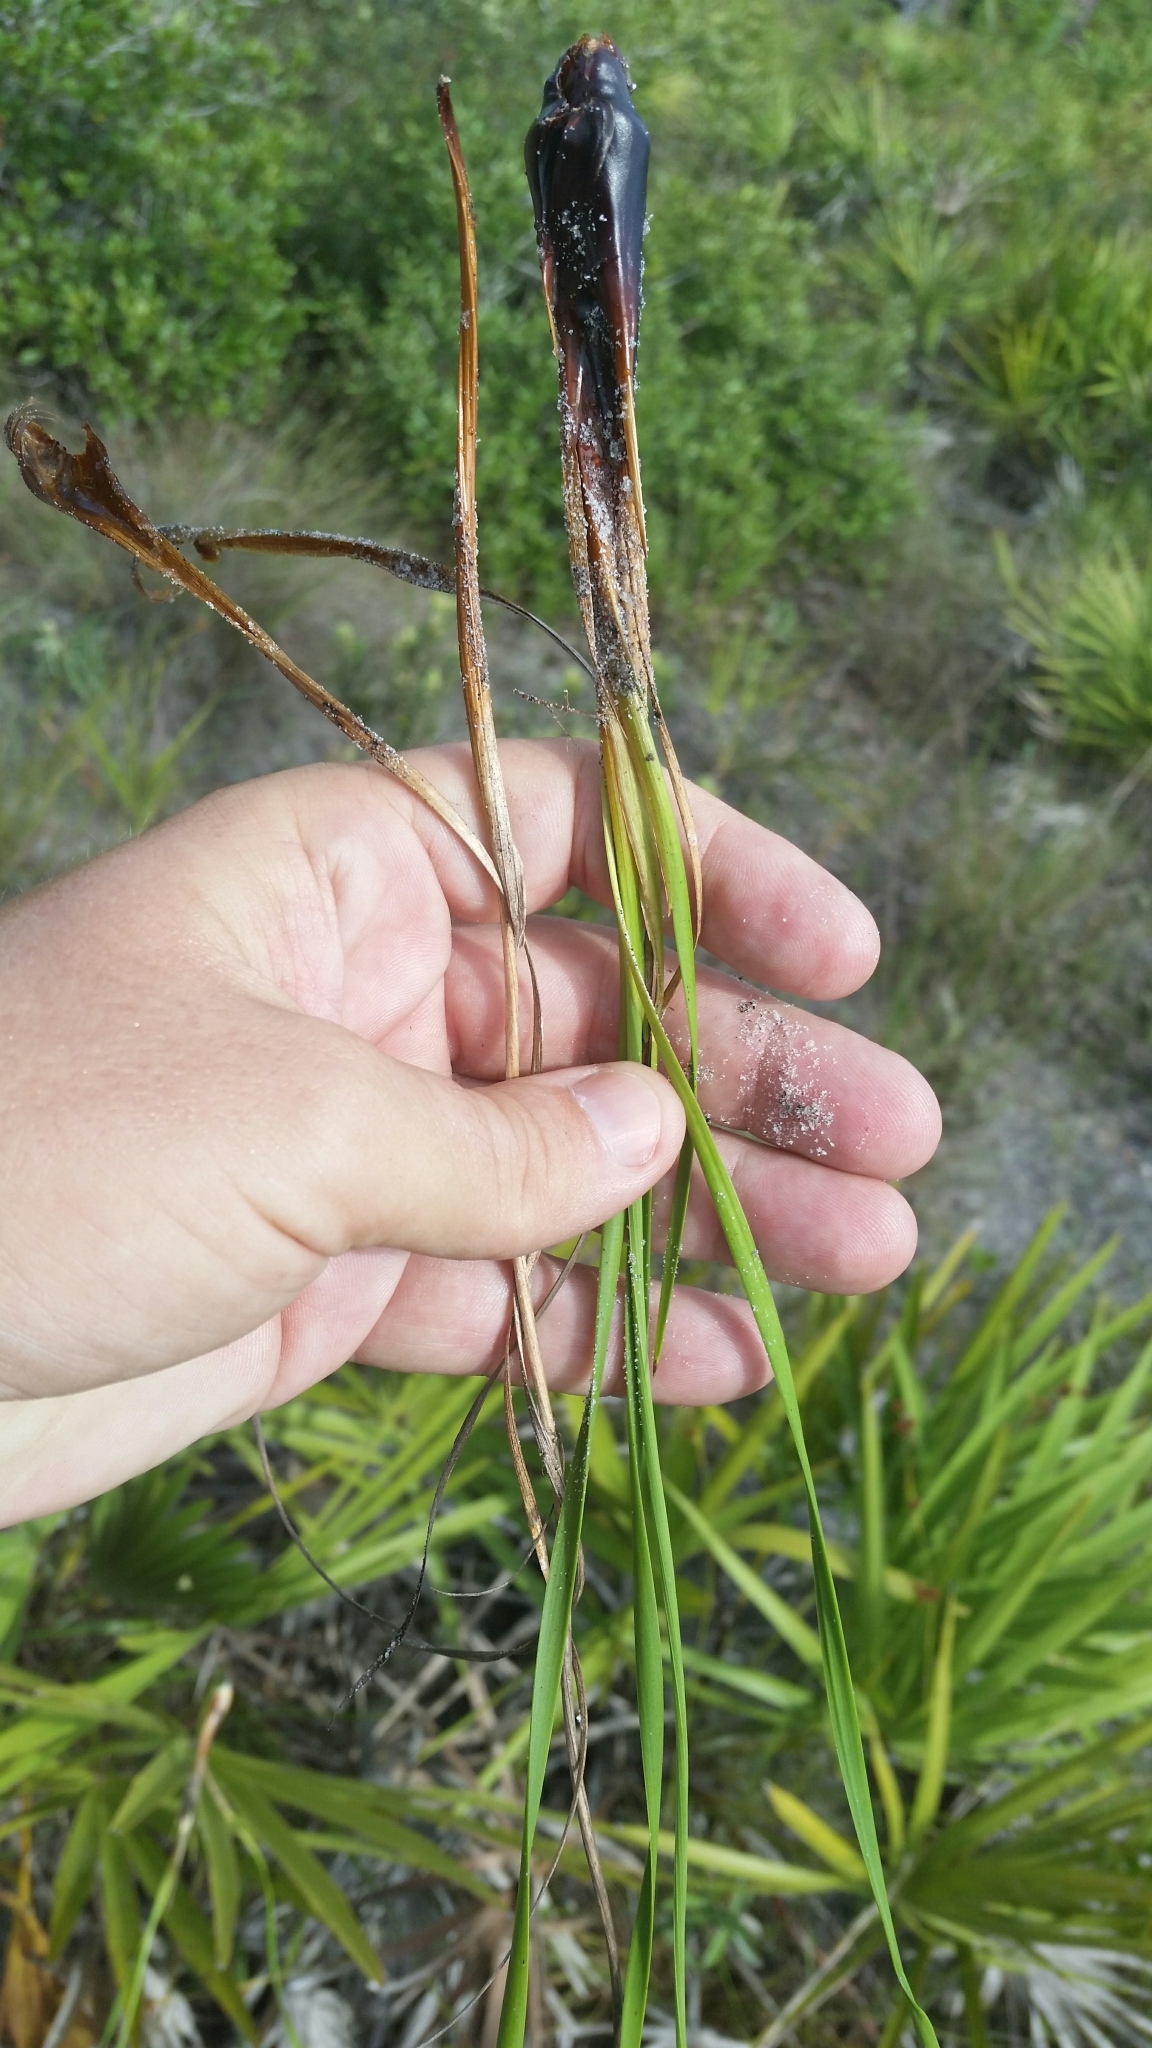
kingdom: Plantae
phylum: Tracheophyta
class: Liliopsida
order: Poales
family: Xyridaceae
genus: Xyris
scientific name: Xyris caroliniana
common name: Carolina yellow-eyed-grass
